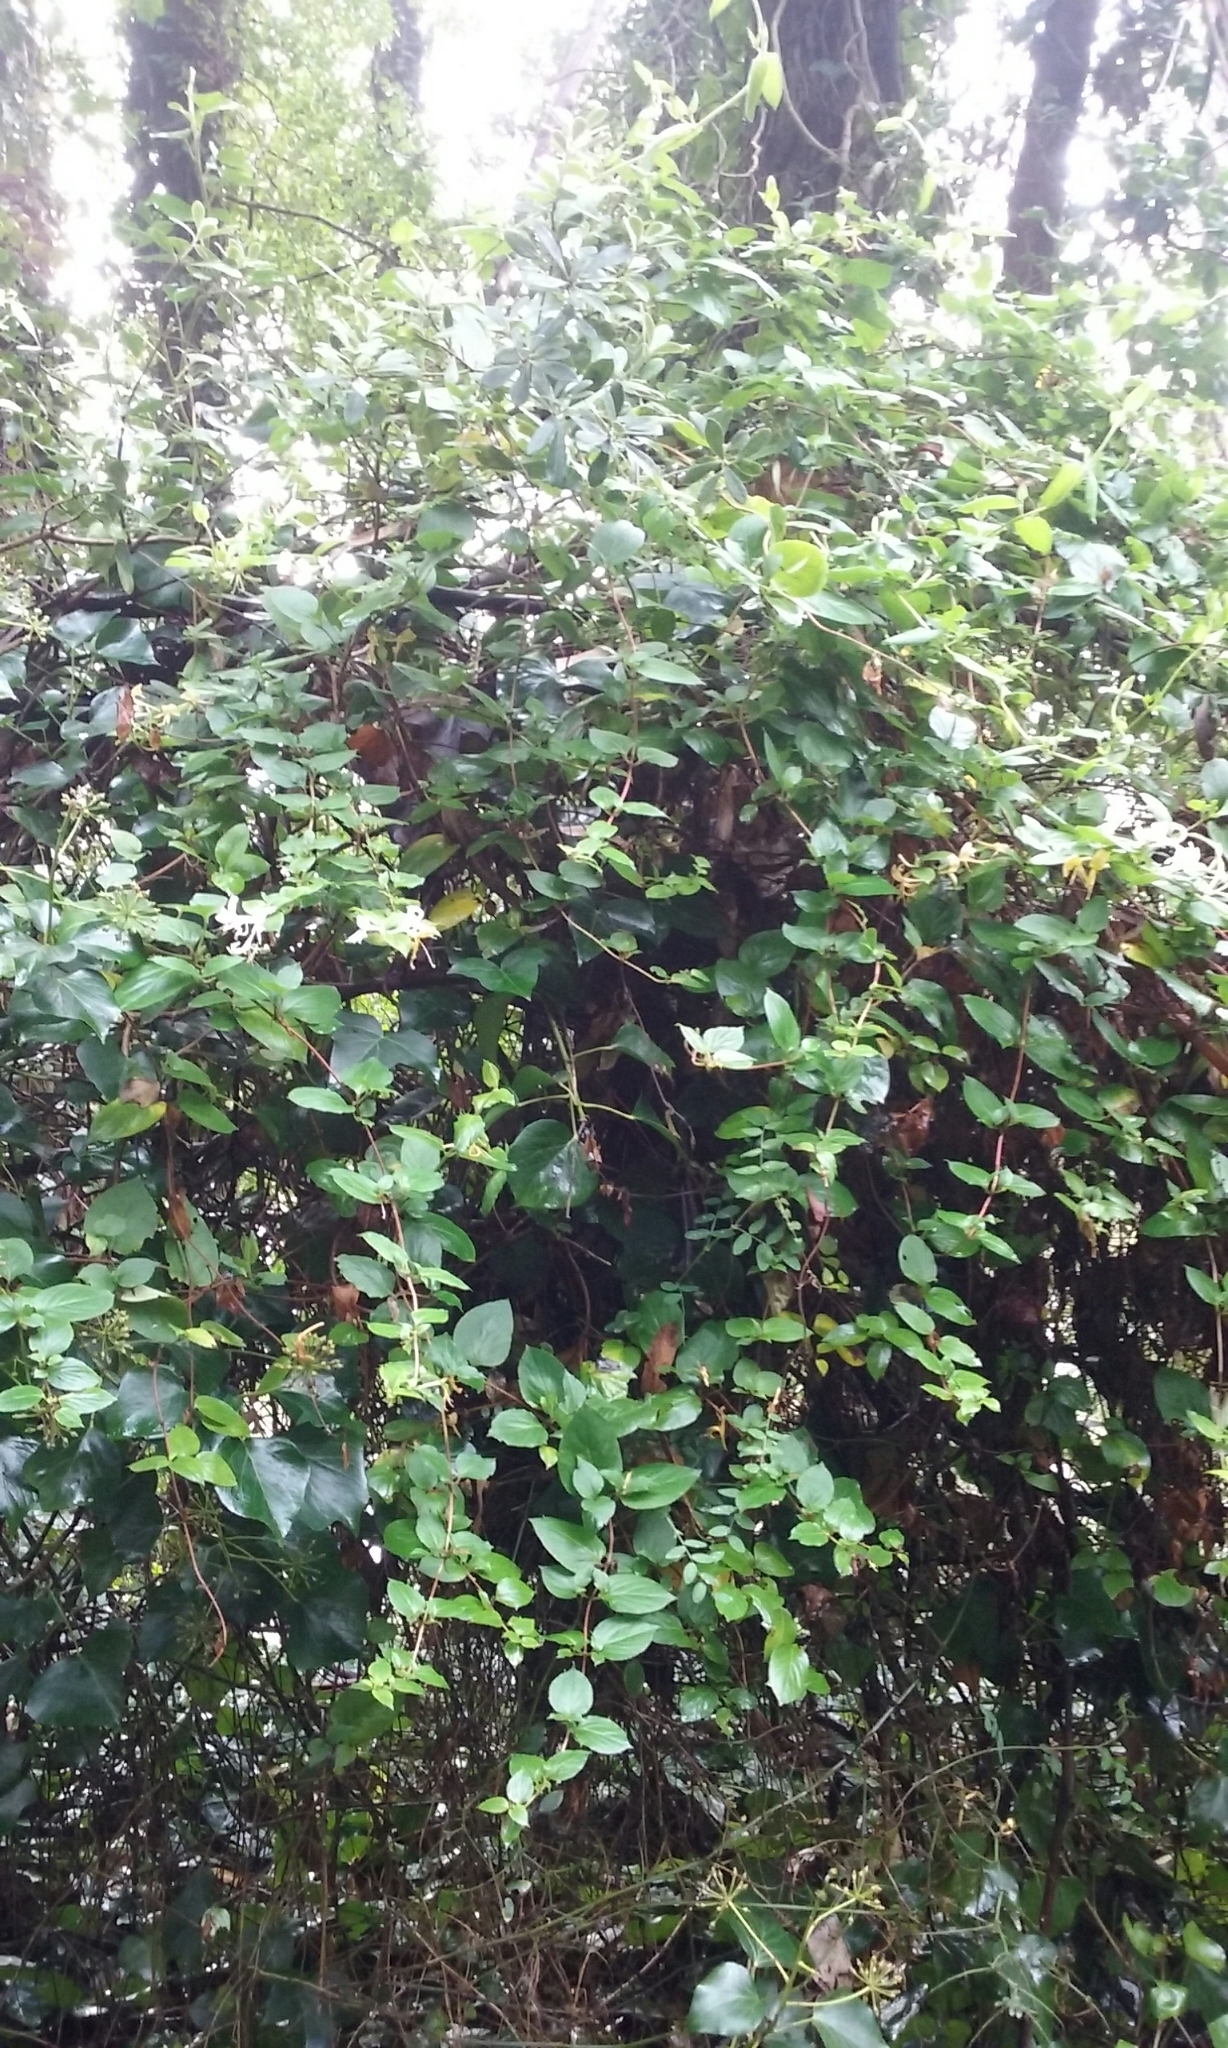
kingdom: Plantae
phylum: Tracheophyta
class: Magnoliopsida
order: Dipsacales
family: Caprifoliaceae
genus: Lonicera
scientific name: Lonicera japonica
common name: Japanese honeysuckle
